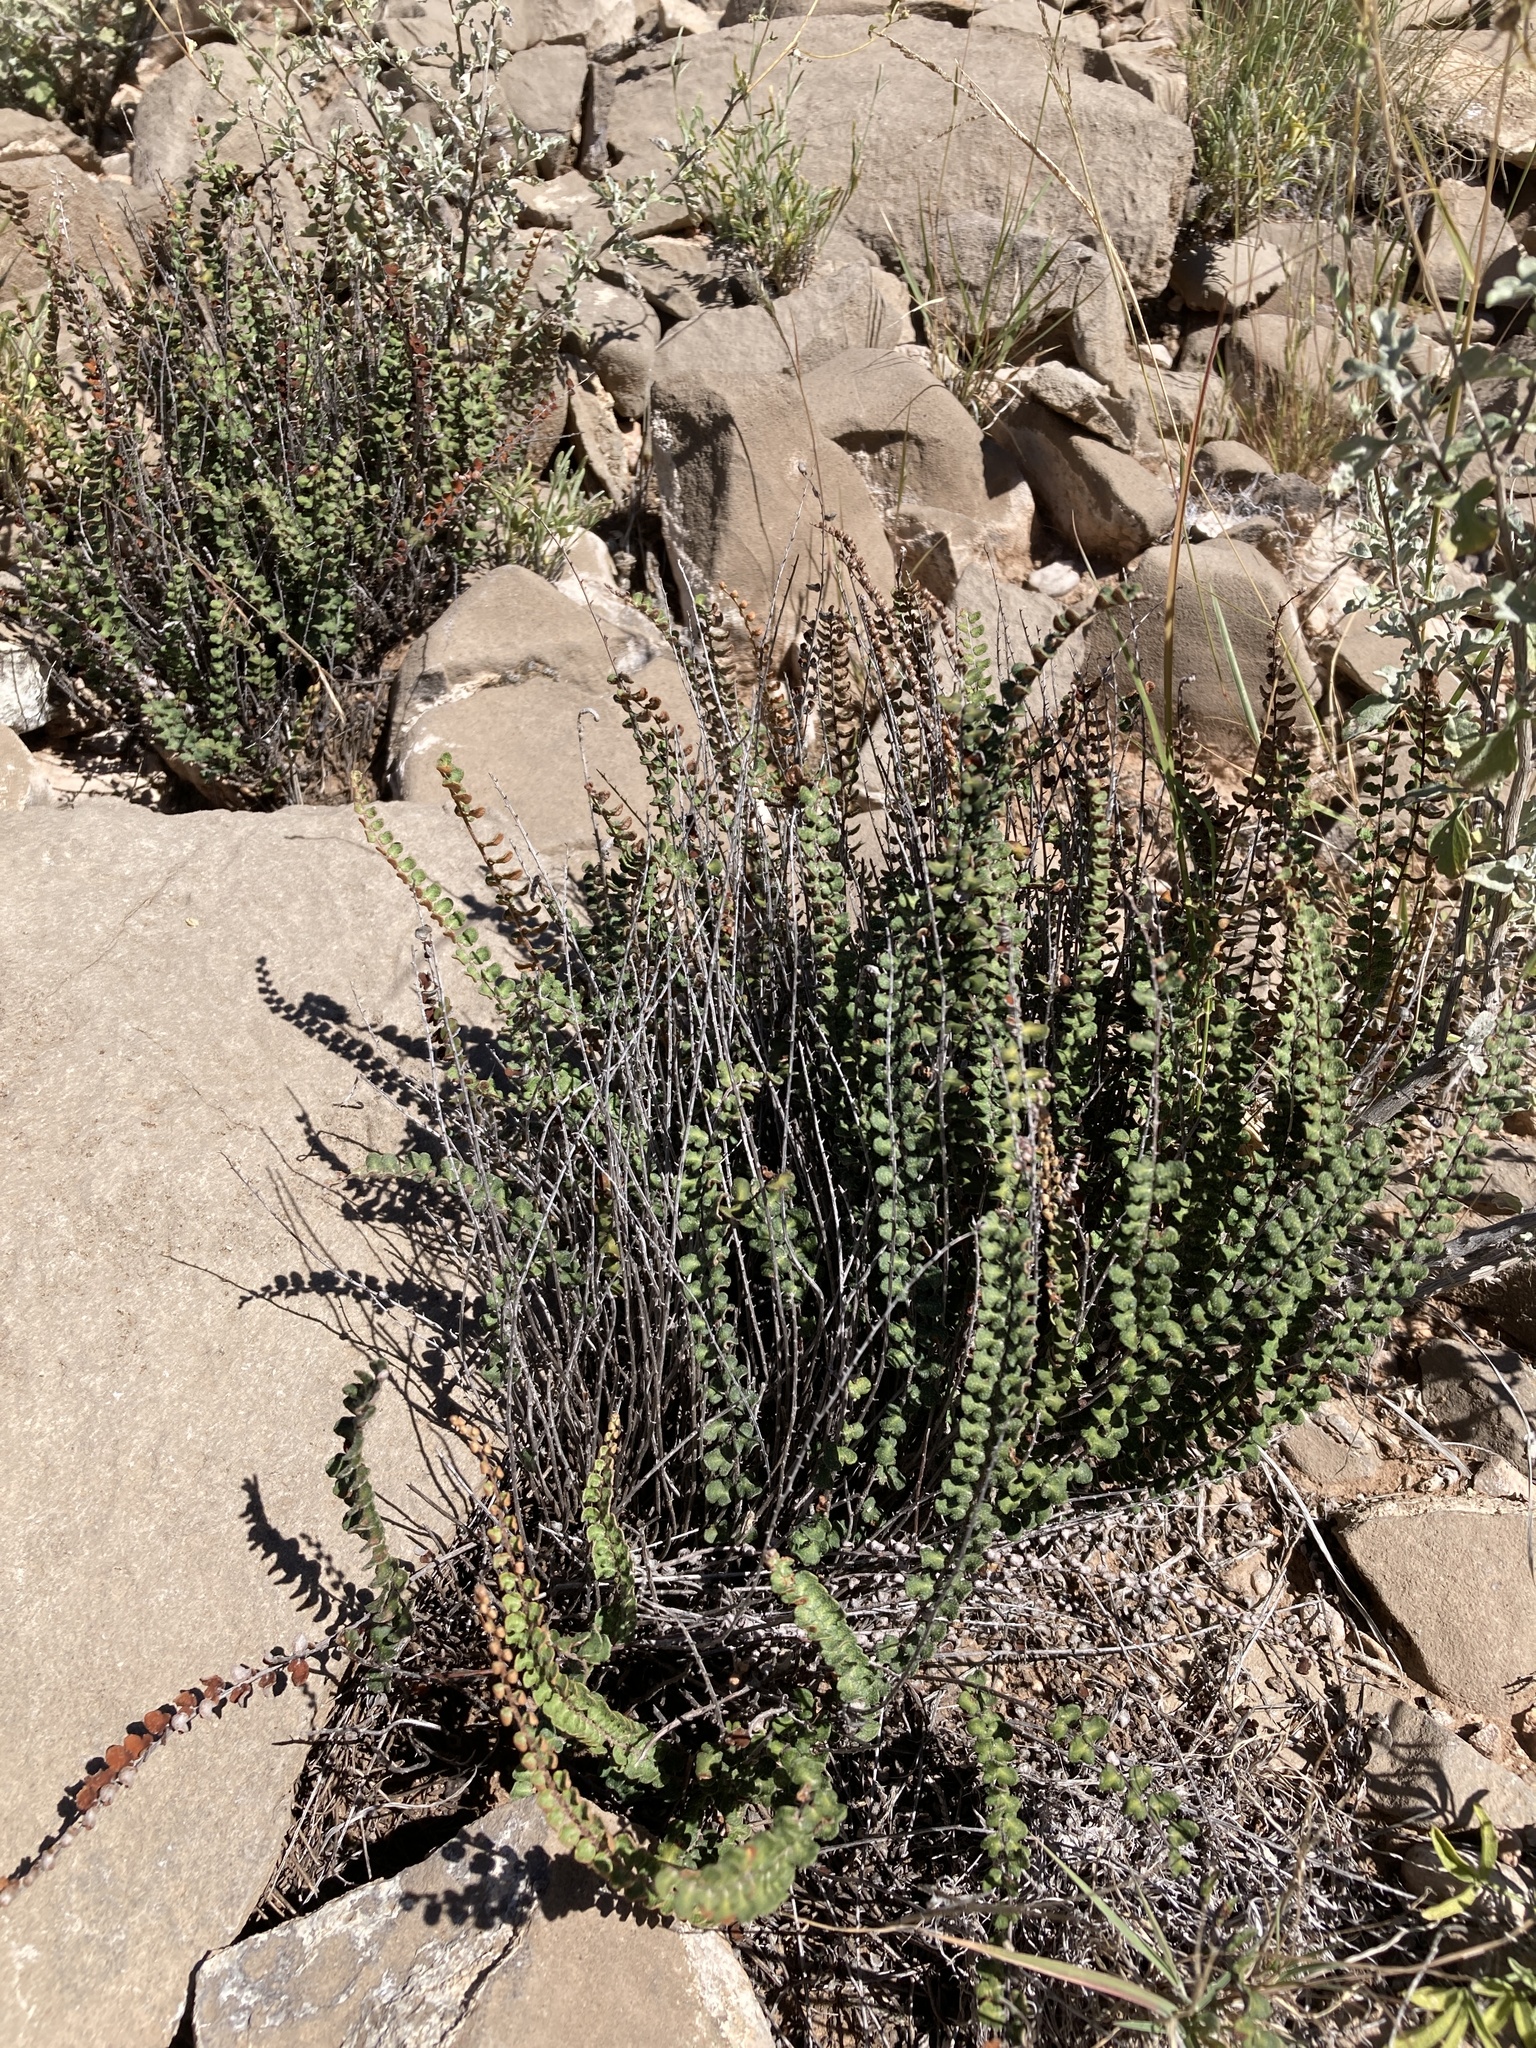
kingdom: Plantae
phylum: Tracheophyta
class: Polypodiopsida
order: Polypodiales
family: Pteridaceae
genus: Astrolepis
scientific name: Astrolepis cochisensis
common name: Scaly cloak fern
